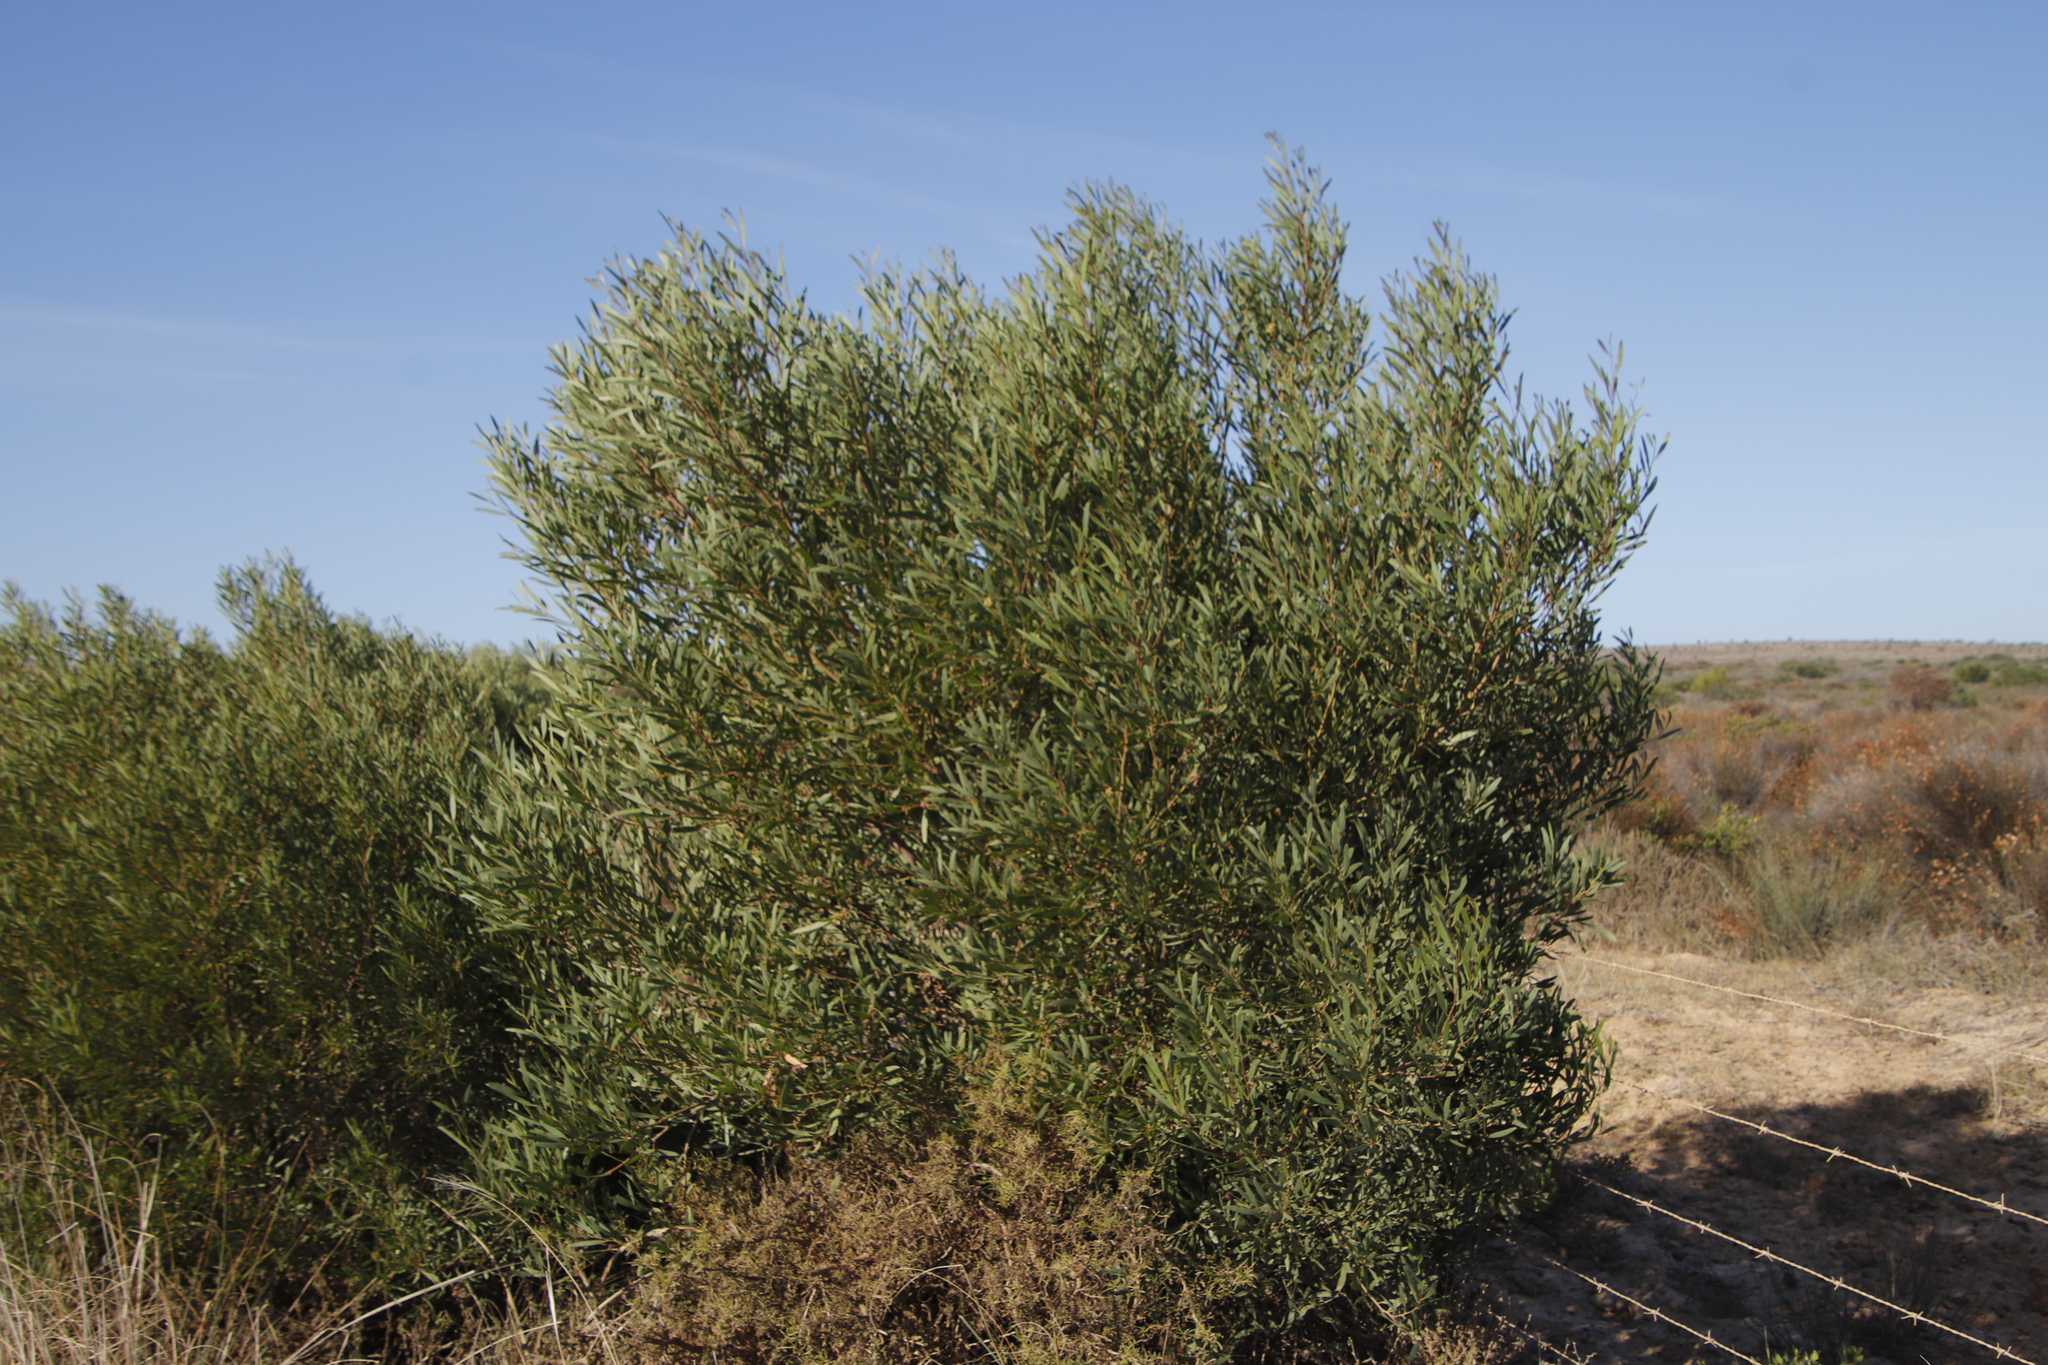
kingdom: Plantae
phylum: Tracheophyta
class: Magnoliopsida
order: Fabales
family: Fabaceae
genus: Acacia
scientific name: Acacia cyclops
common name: Coastal wattle
